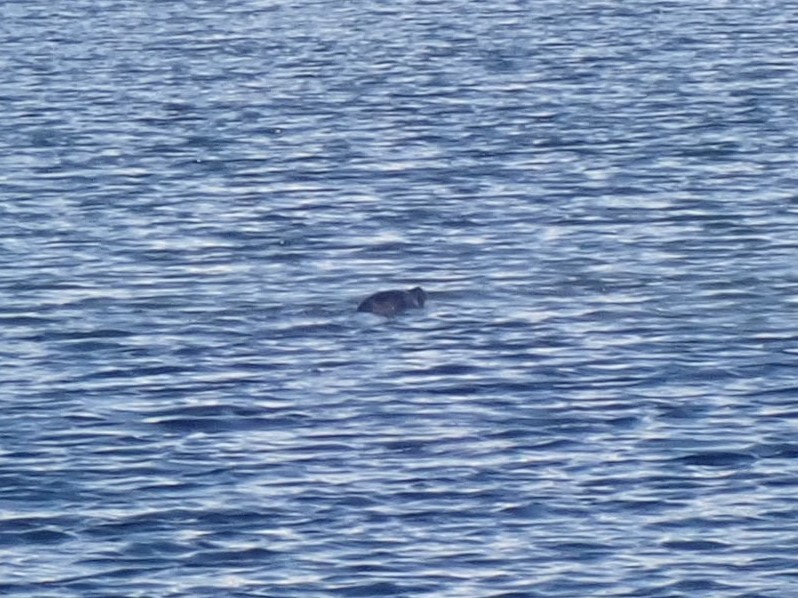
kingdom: Animalia
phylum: Chordata
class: Mammalia
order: Carnivora
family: Phocidae
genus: Phoca
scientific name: Phoca vitulina
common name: Harbor seal
